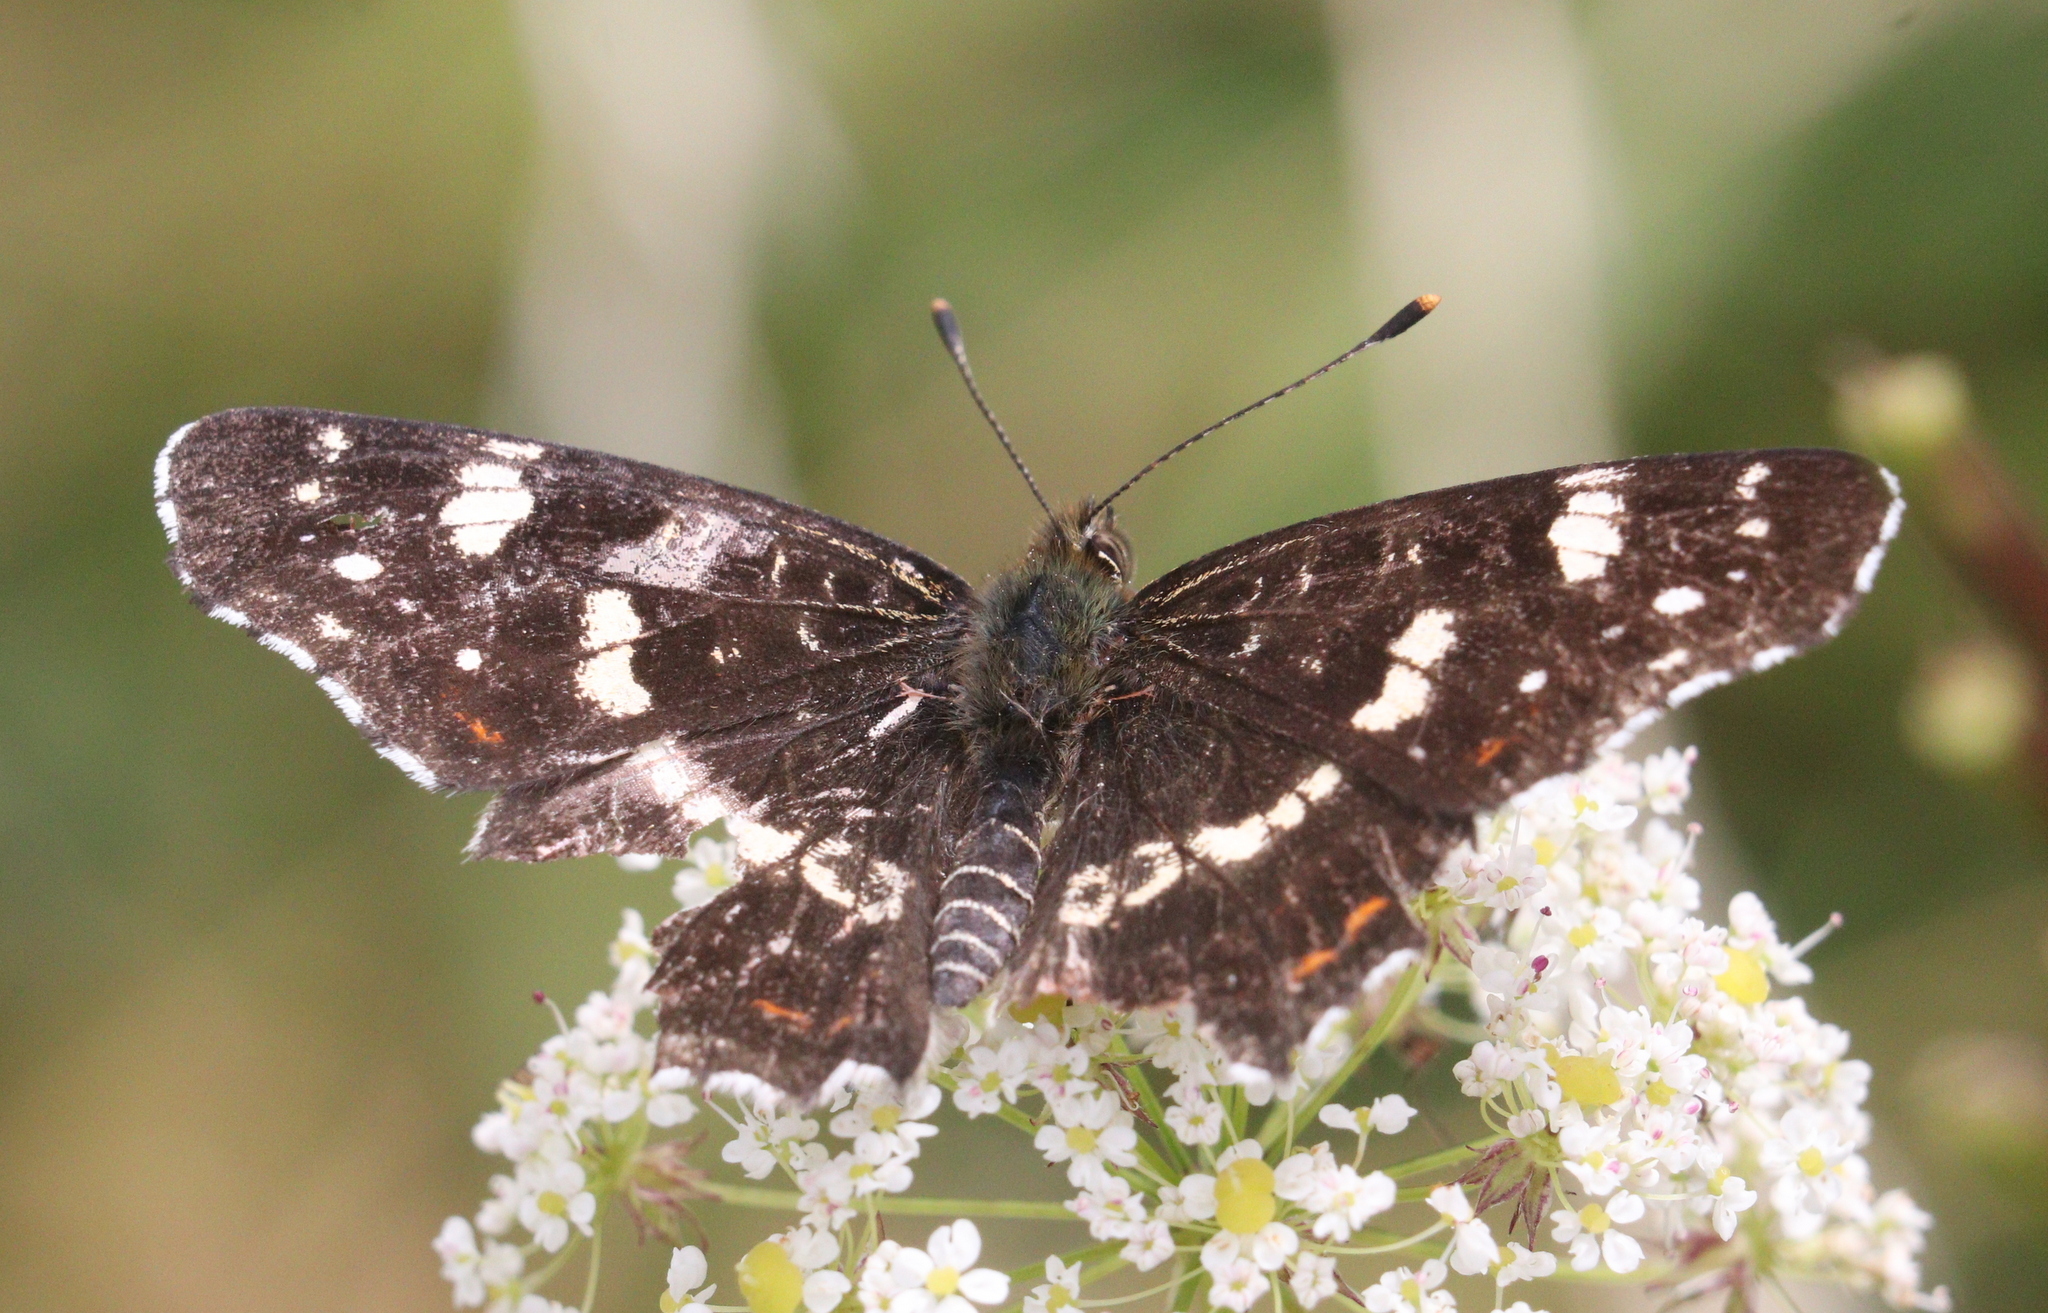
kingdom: Animalia
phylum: Arthropoda
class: Insecta
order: Lepidoptera
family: Nymphalidae
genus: Araschnia
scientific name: Araschnia levana
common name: Map butterfly
